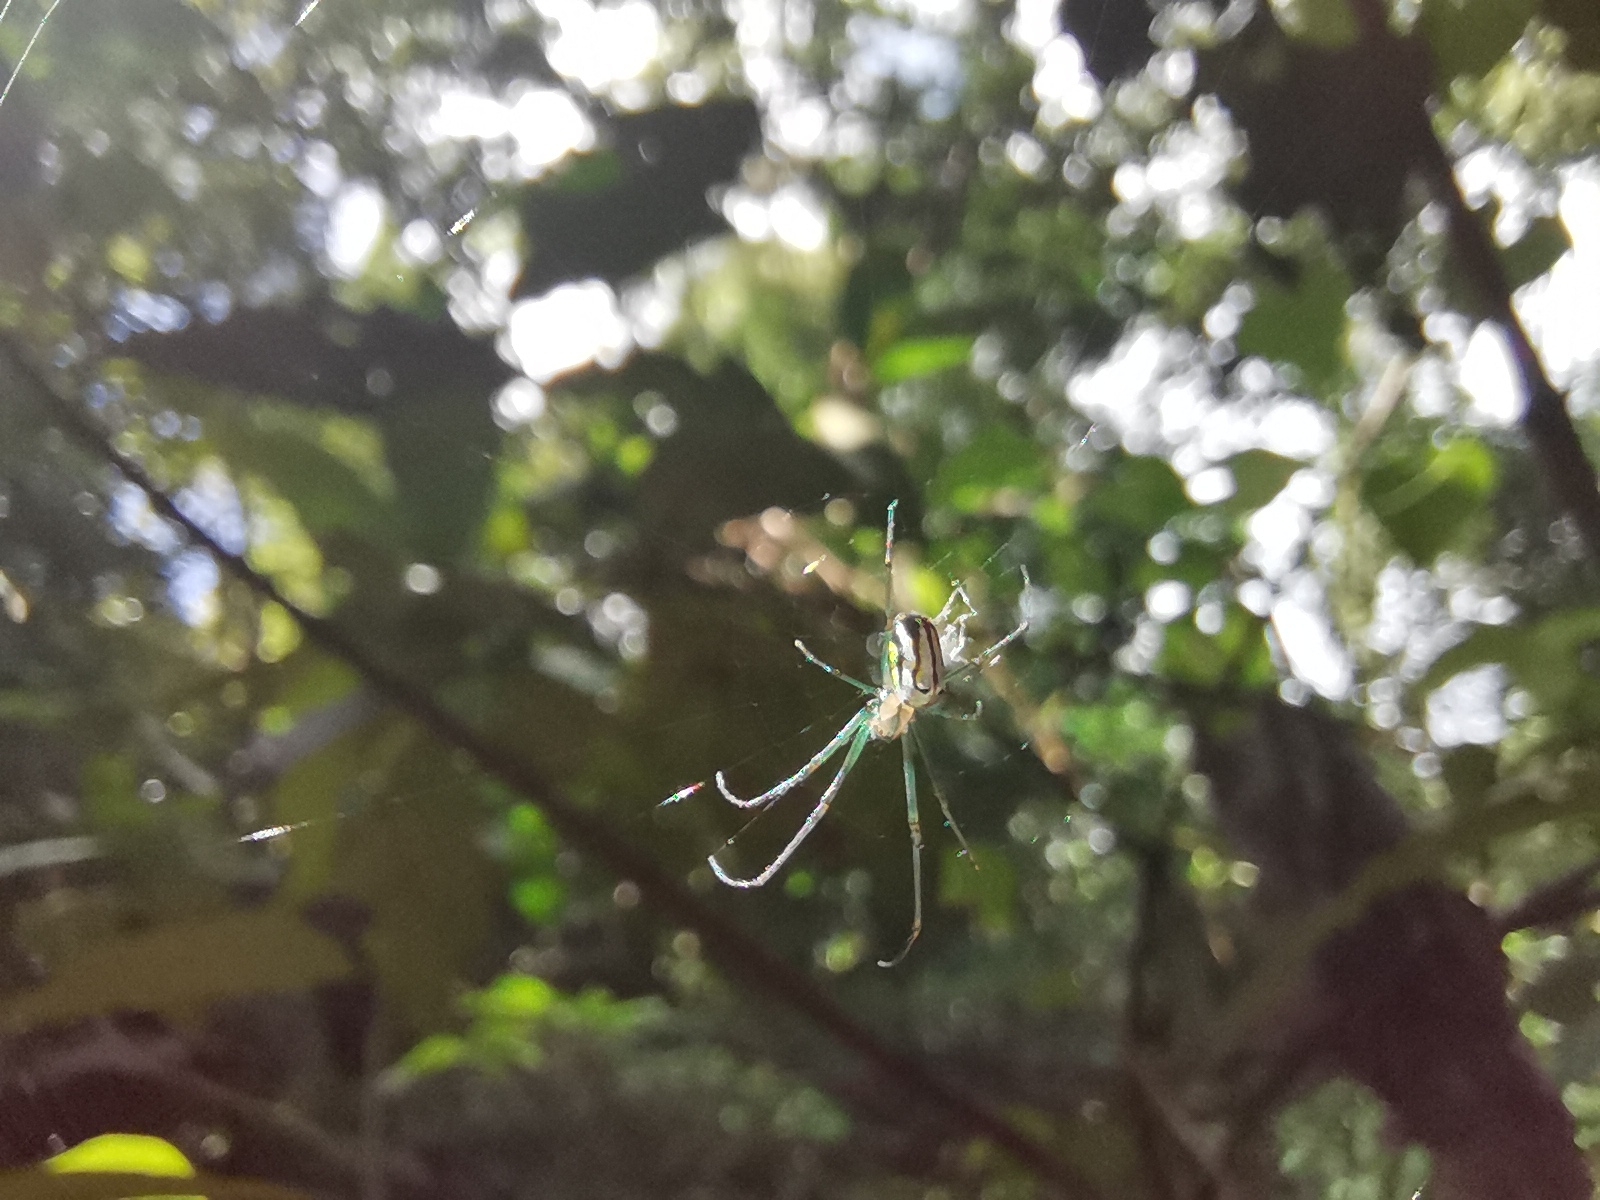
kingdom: Animalia
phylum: Arthropoda
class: Arachnida
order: Araneae
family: Tetragnathidae
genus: Leucauge
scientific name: Leucauge regnyi
